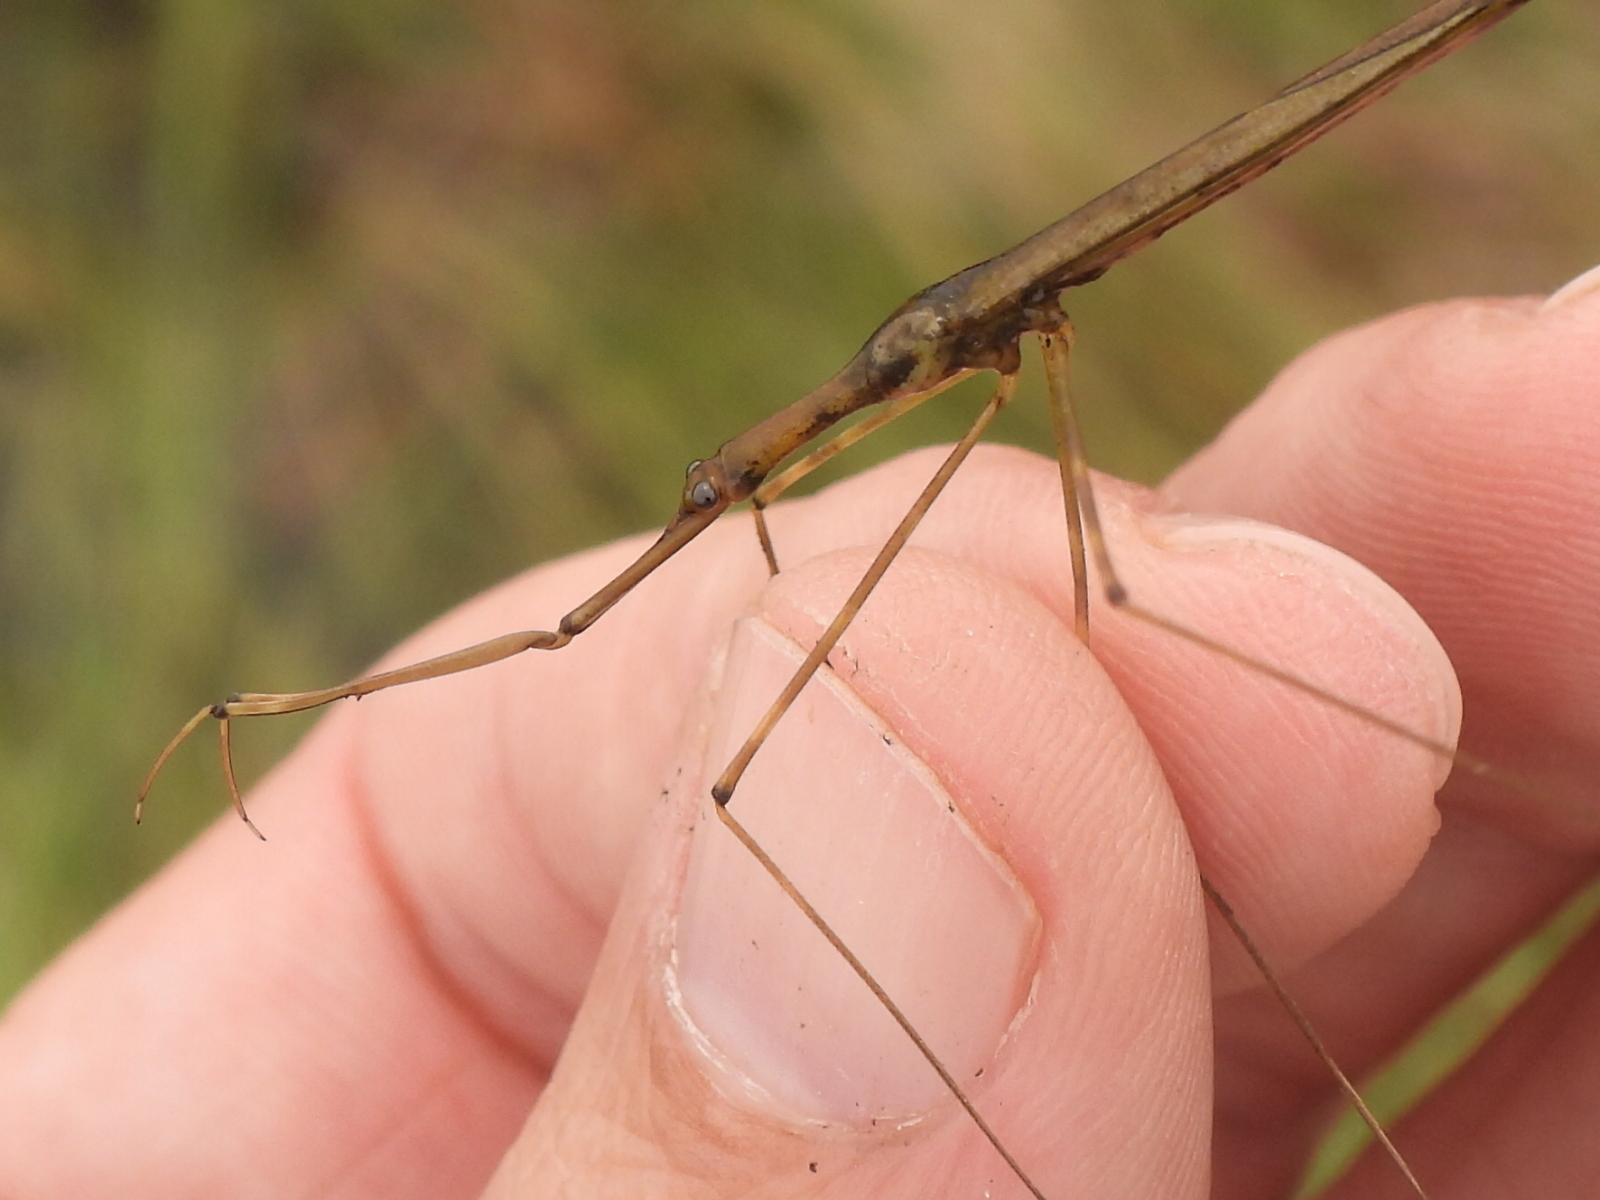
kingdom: Animalia
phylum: Arthropoda
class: Insecta
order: Hemiptera
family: Nepidae
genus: Ranatra
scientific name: Ranatra nigra
